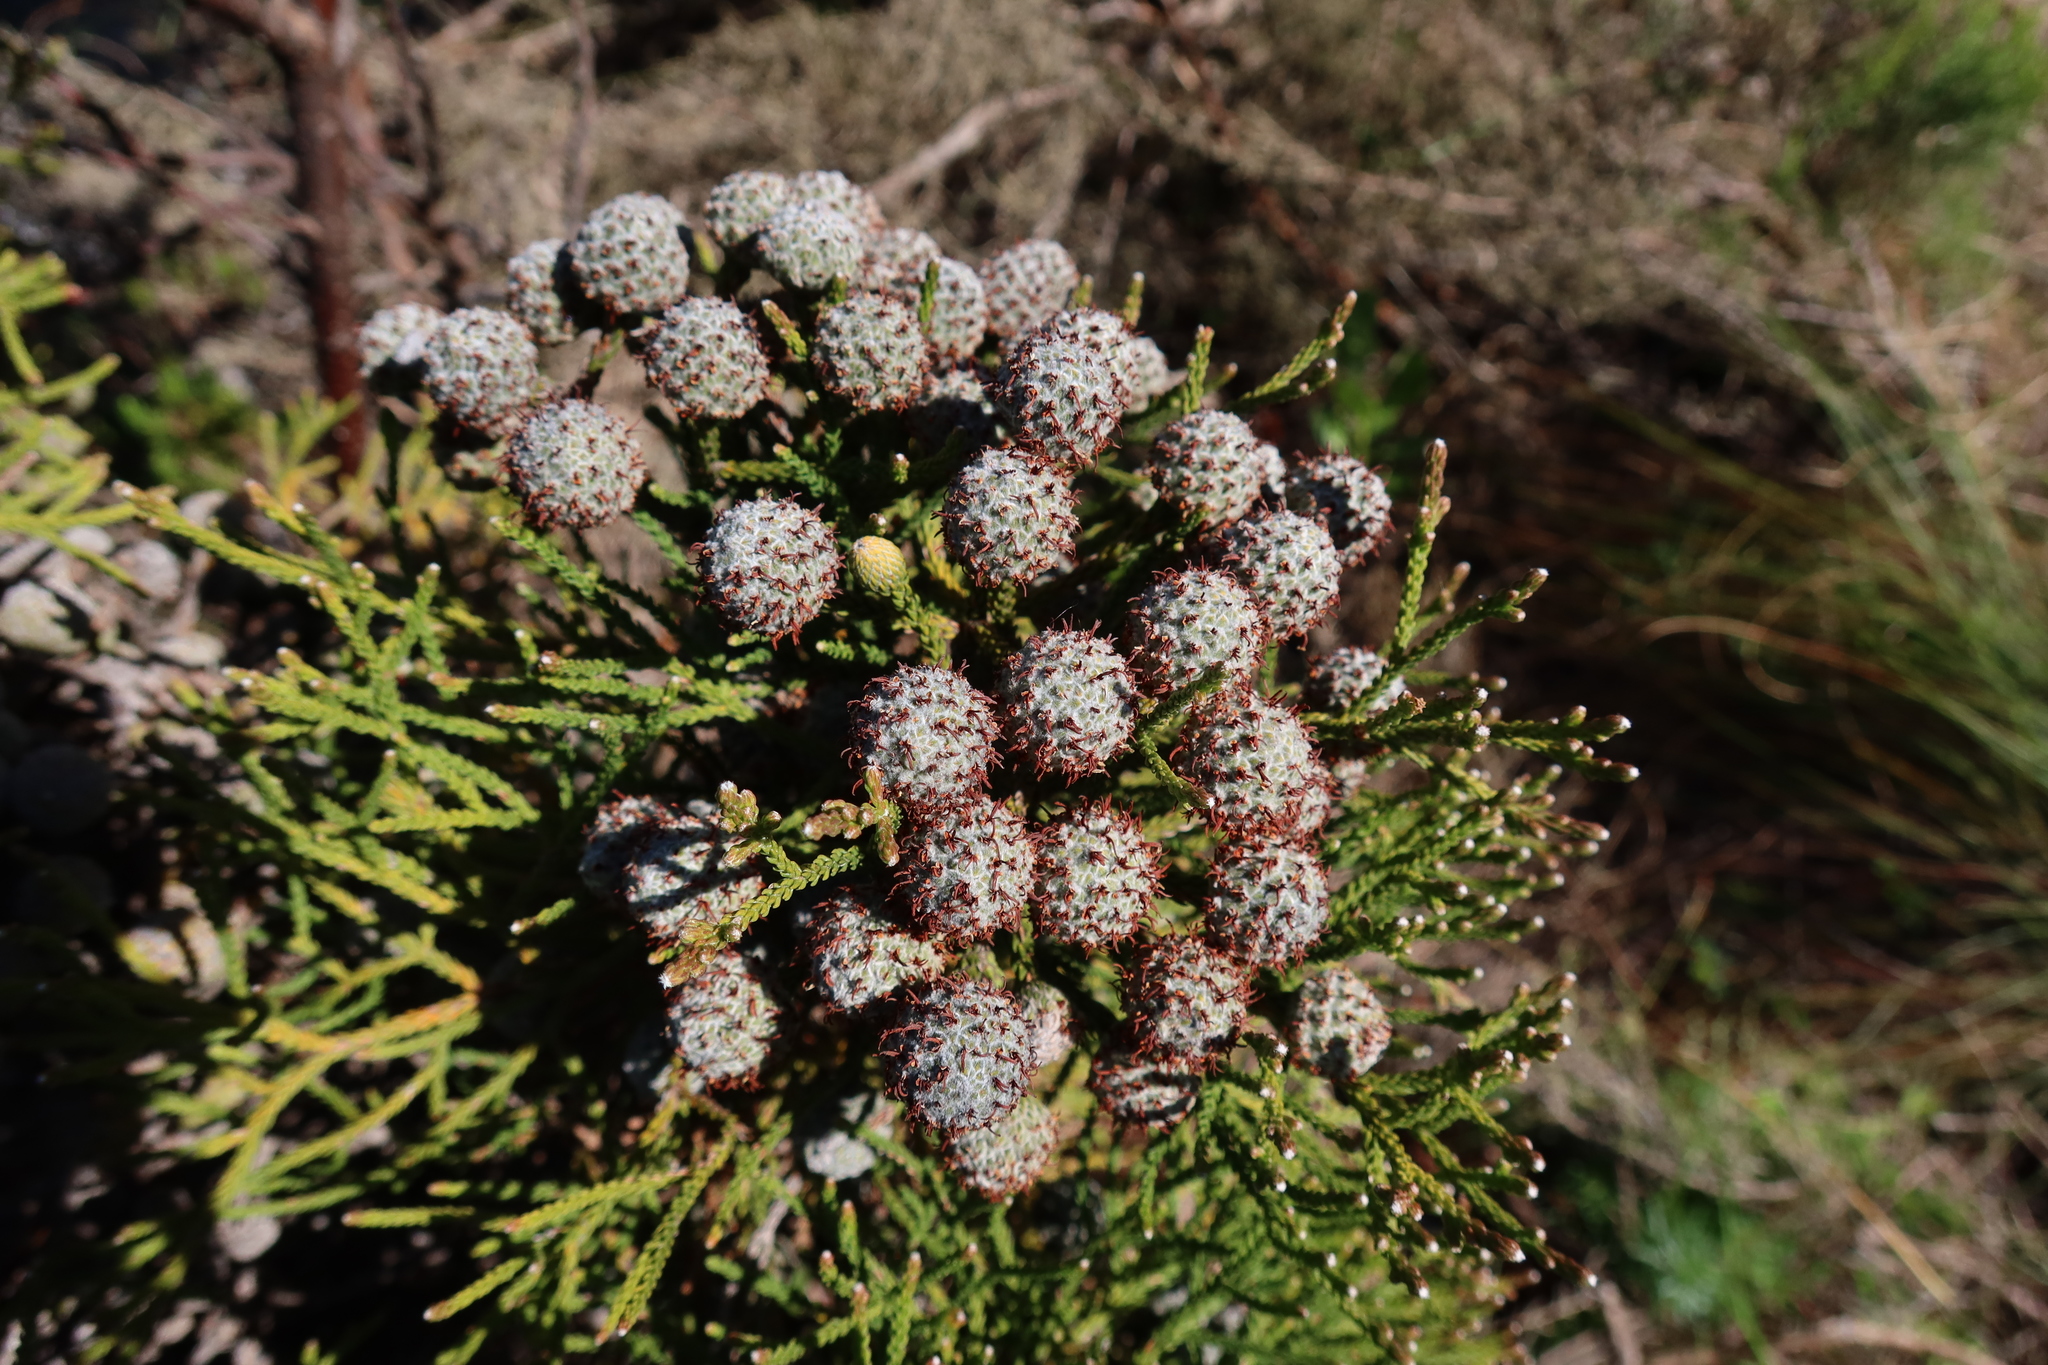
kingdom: Plantae
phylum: Tracheophyta
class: Magnoliopsida
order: Bruniales
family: Bruniaceae
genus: Brunia
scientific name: Brunia noduliflora
